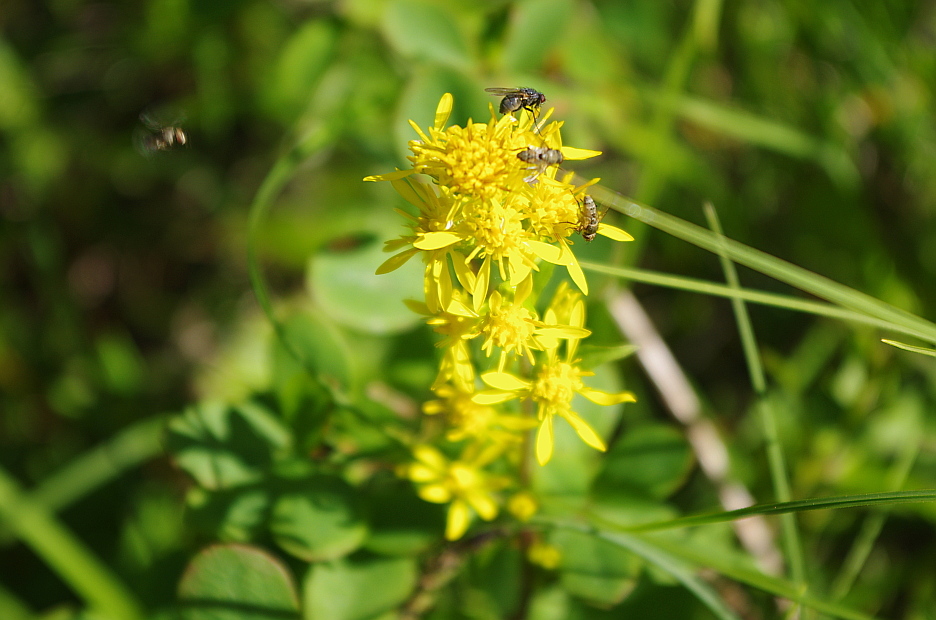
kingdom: Plantae
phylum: Tracheophyta
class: Magnoliopsida
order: Asterales
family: Asteraceae
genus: Solidago
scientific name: Solidago virgaurea
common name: Goldenrod
